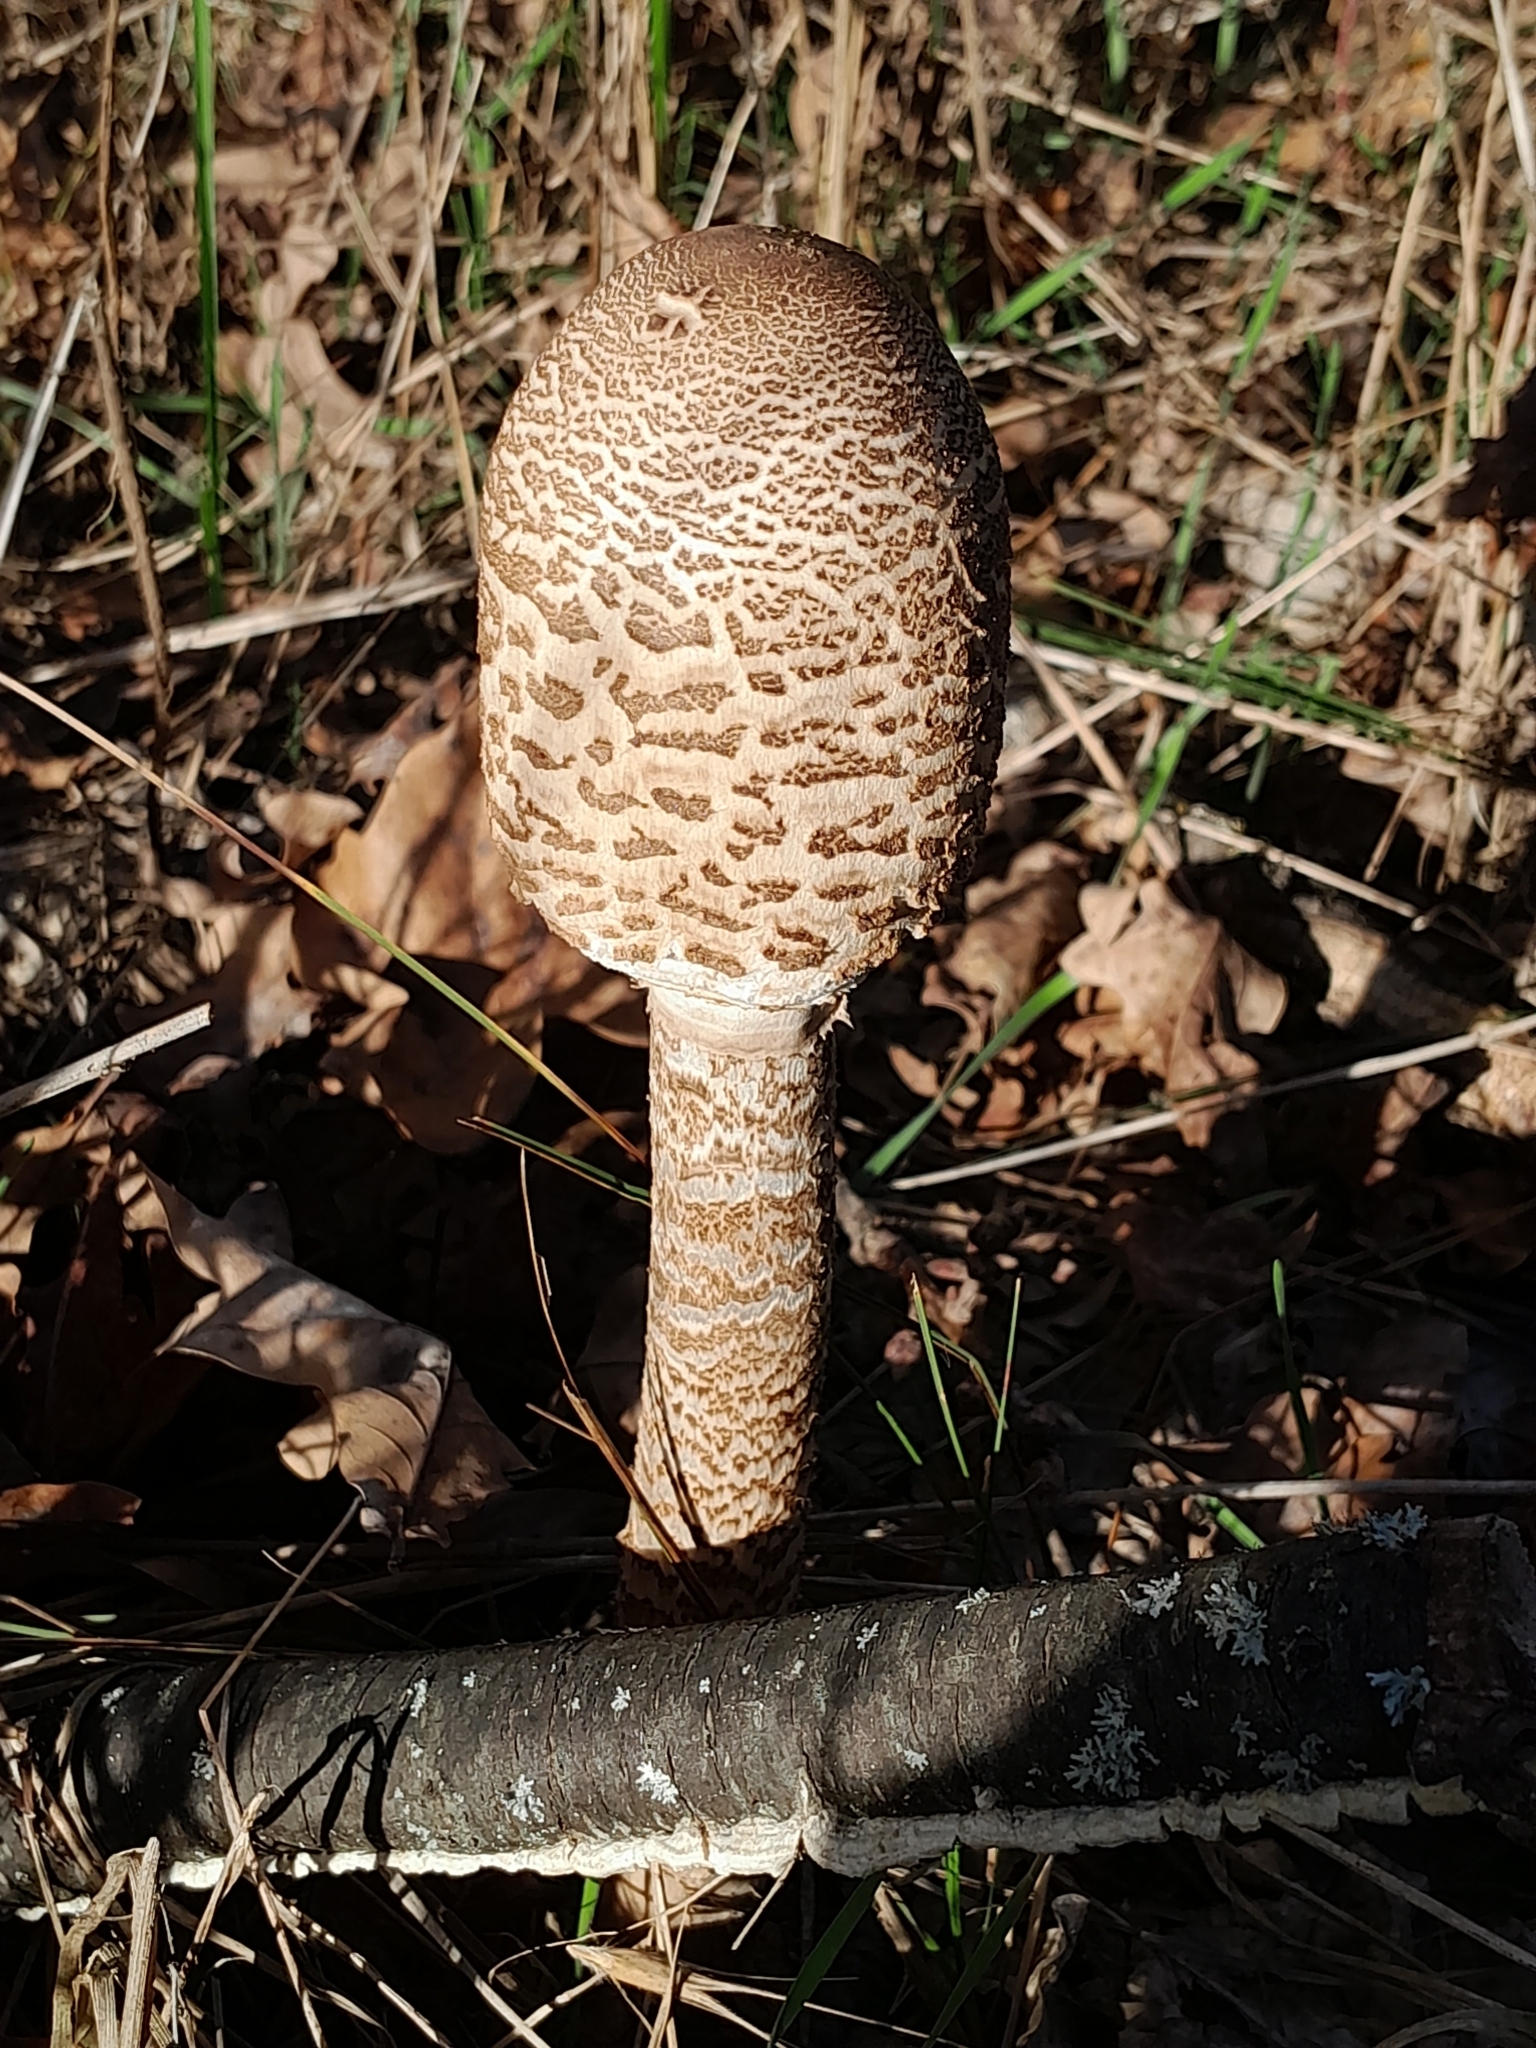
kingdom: Fungi
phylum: Basidiomycota
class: Agaricomycetes
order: Agaricales
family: Agaricaceae
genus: Macrolepiota
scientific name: Macrolepiota procera
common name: Parasol
